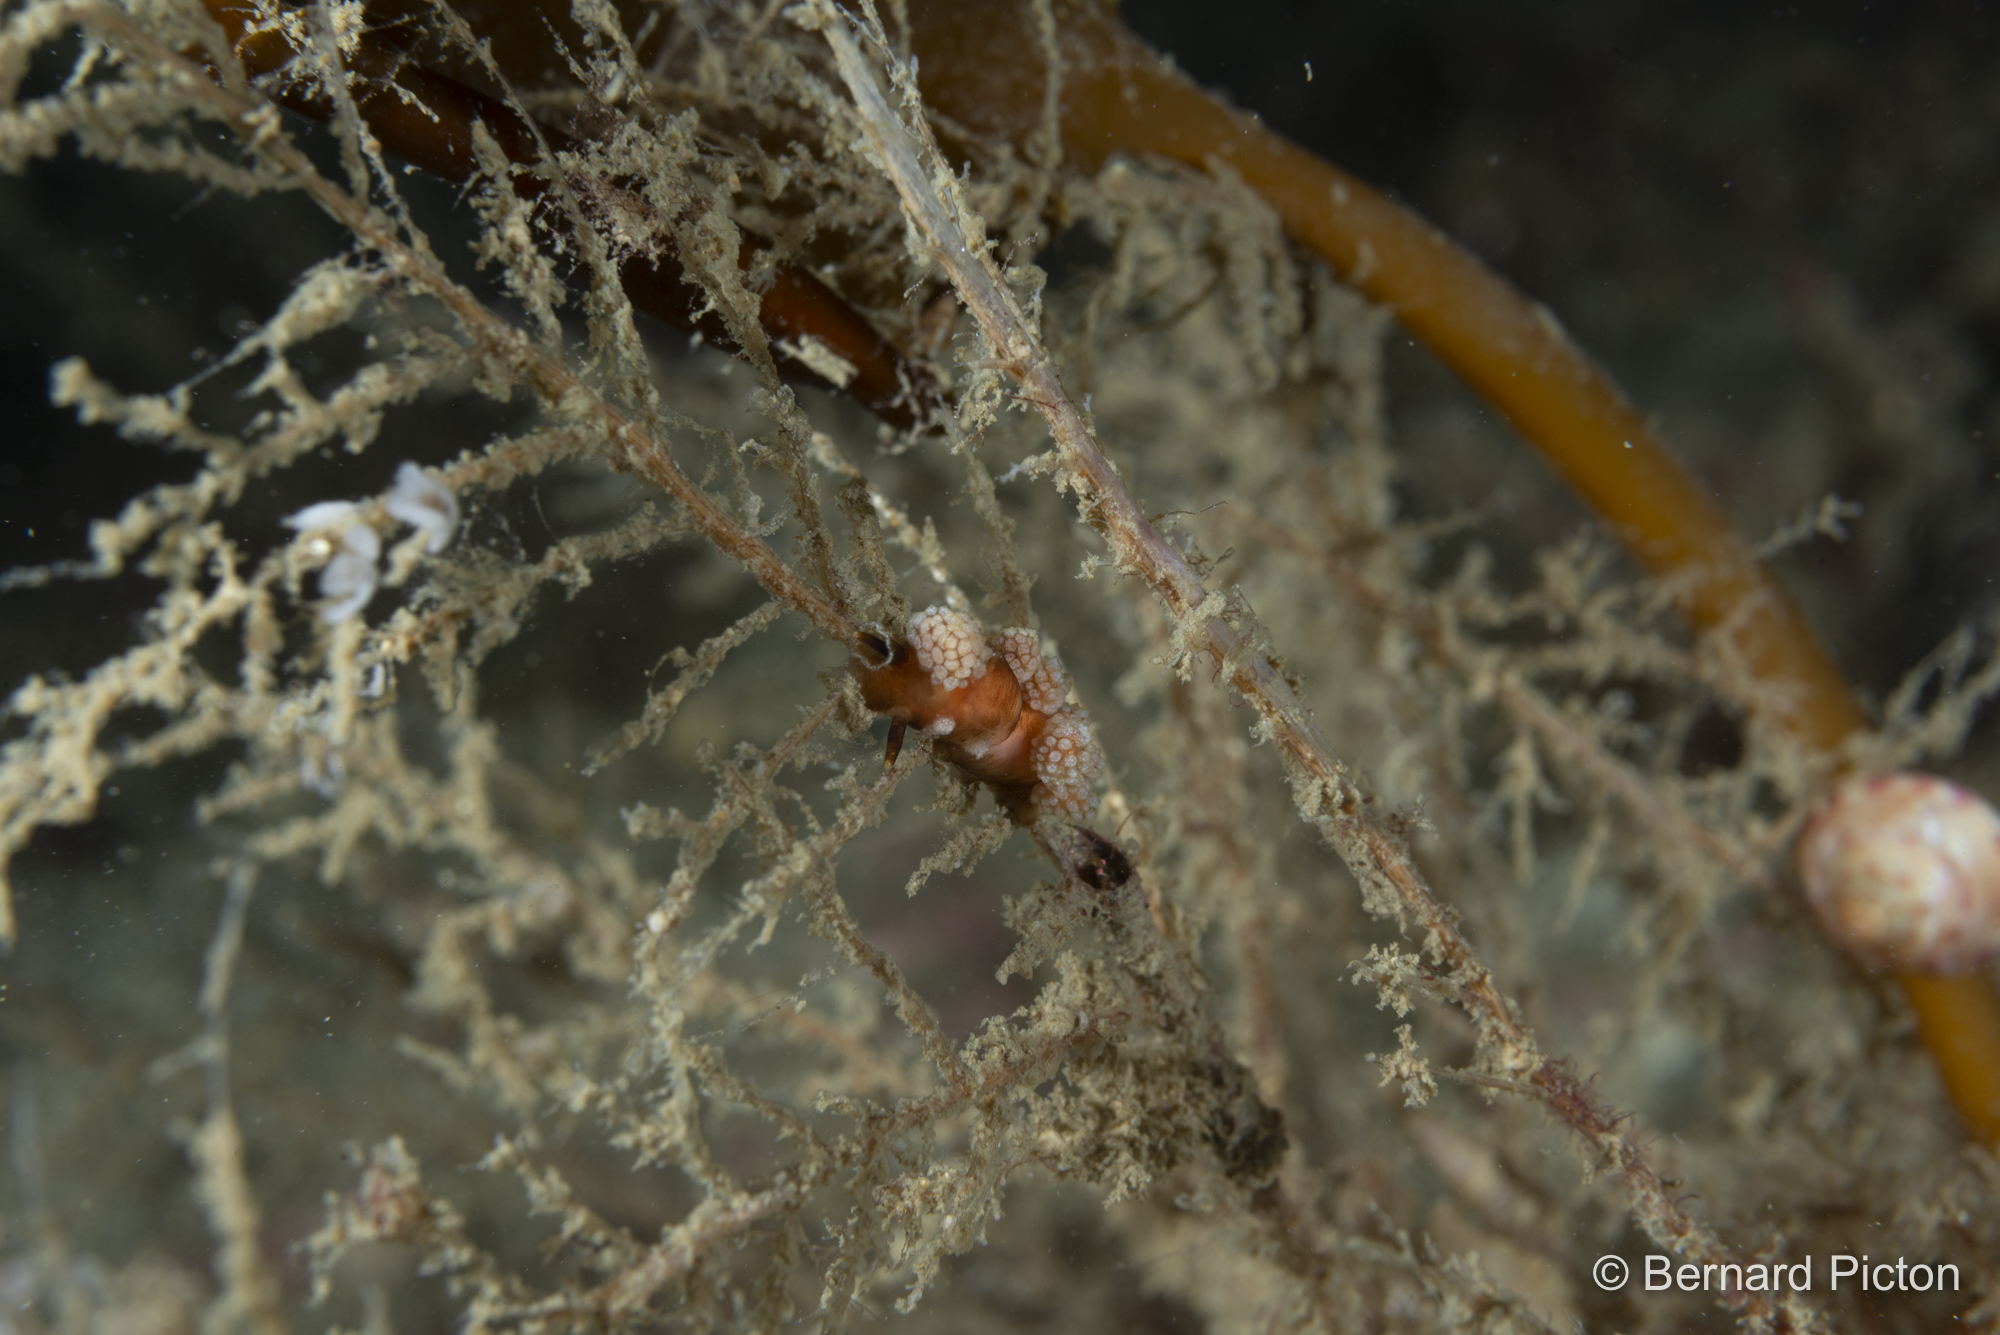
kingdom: Animalia
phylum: Mollusca
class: Gastropoda
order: Nudibranchia
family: Dotidae
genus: Doto
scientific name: Doto fragilis
